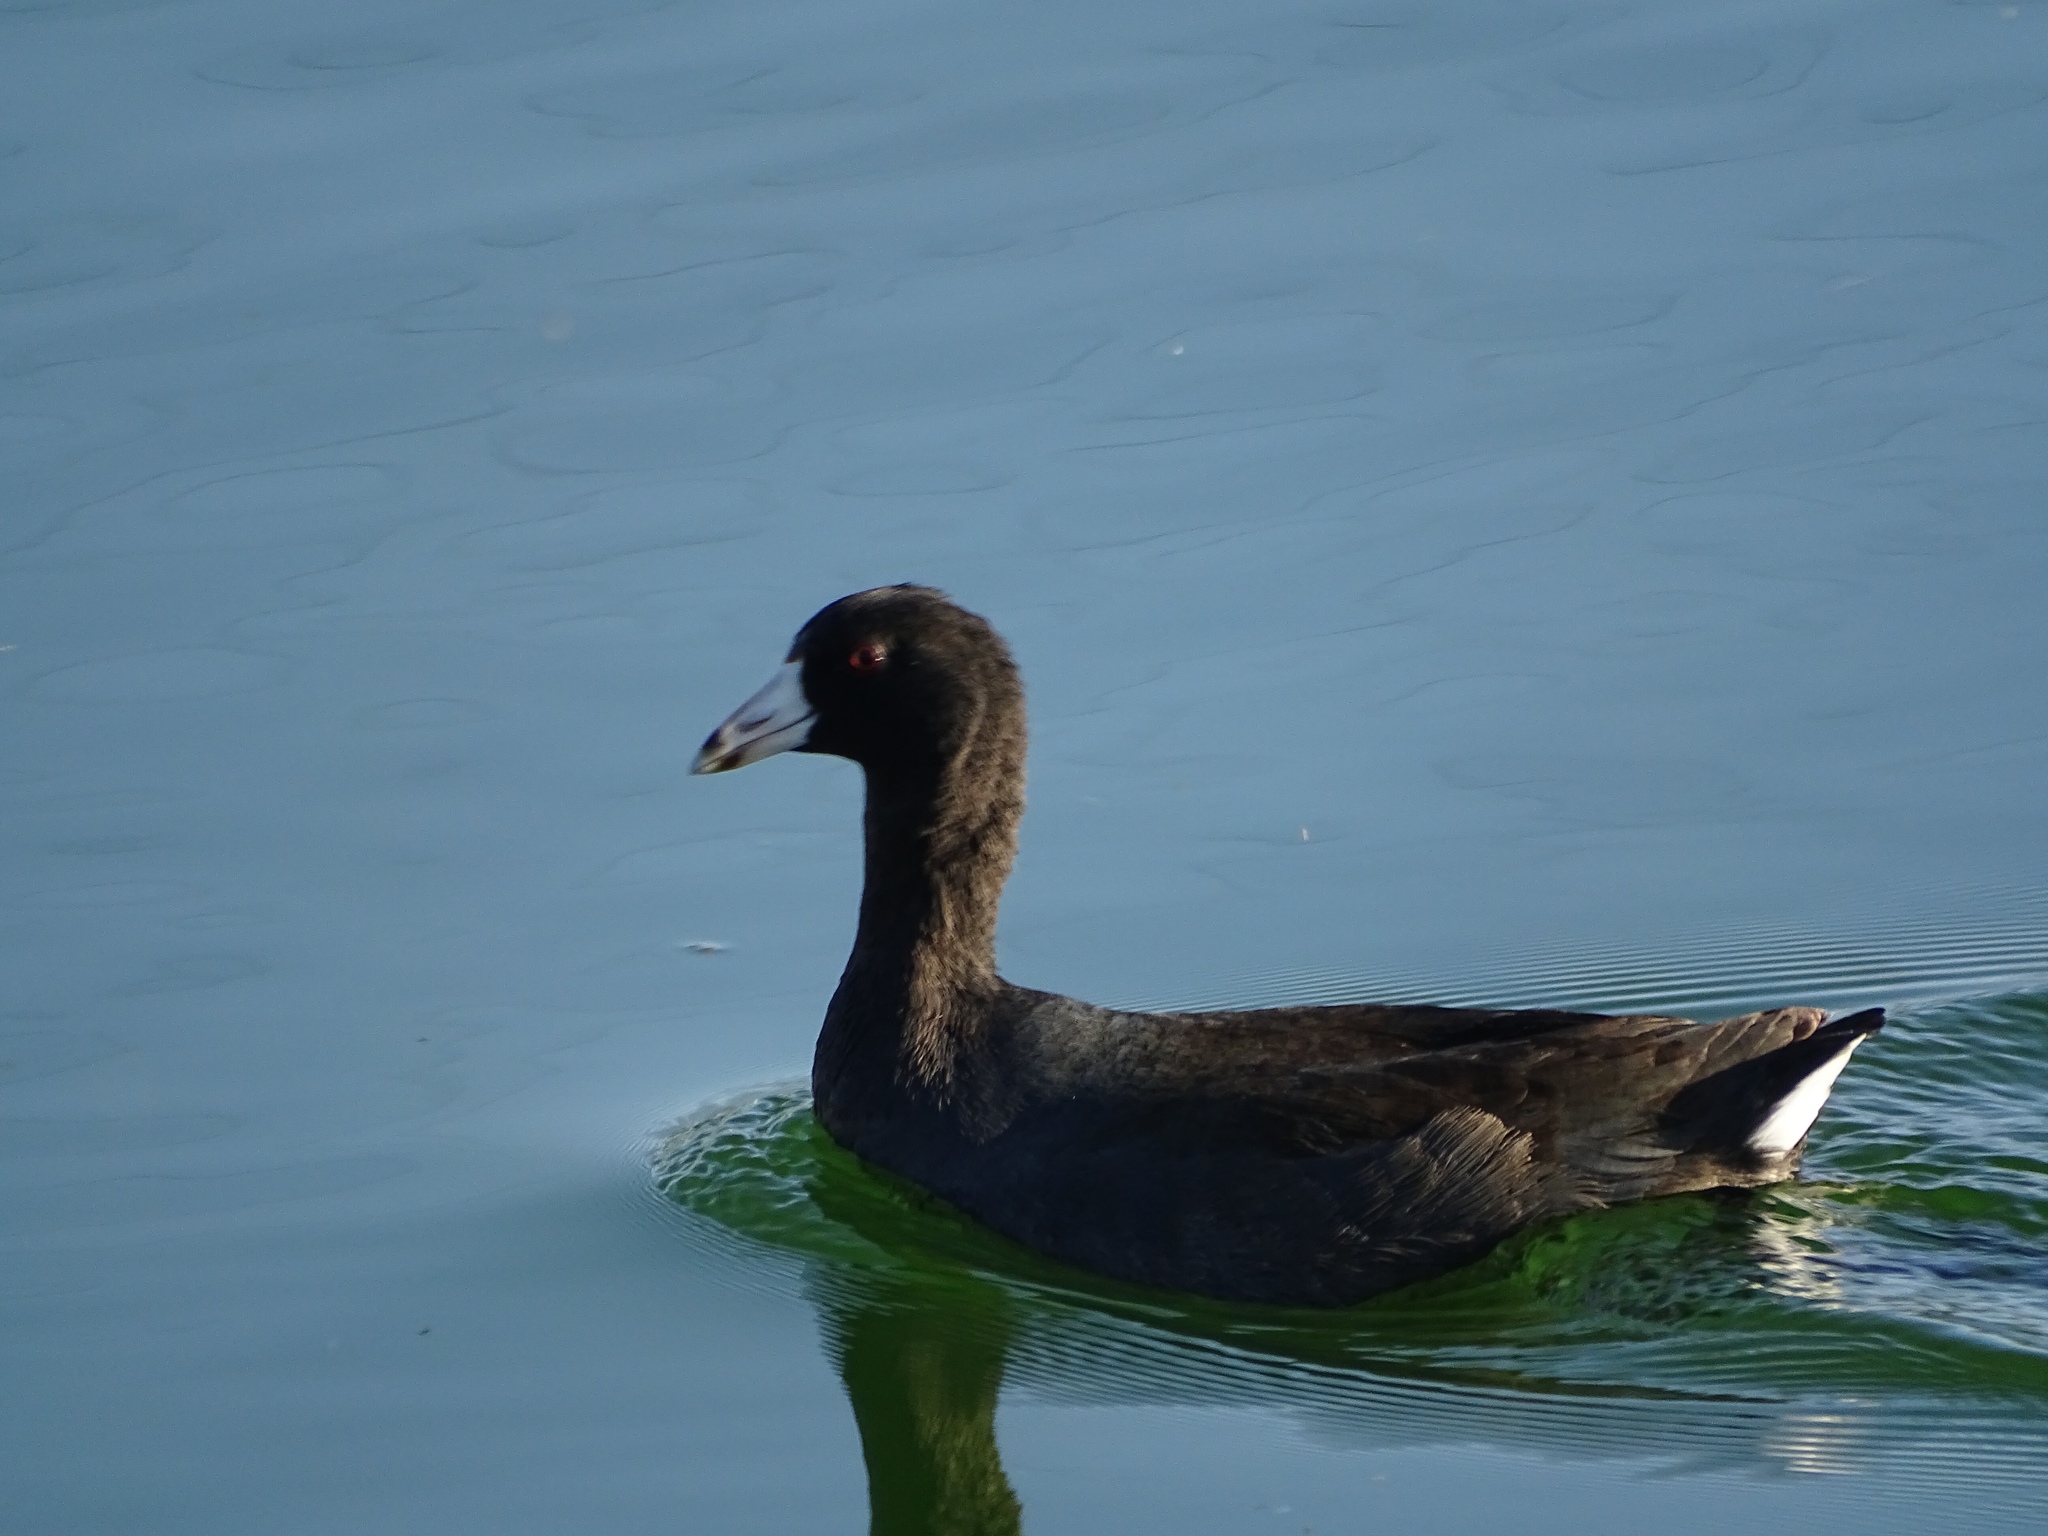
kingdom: Animalia
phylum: Chordata
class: Aves
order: Gruiformes
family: Rallidae
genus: Fulica
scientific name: Fulica americana
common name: American coot
